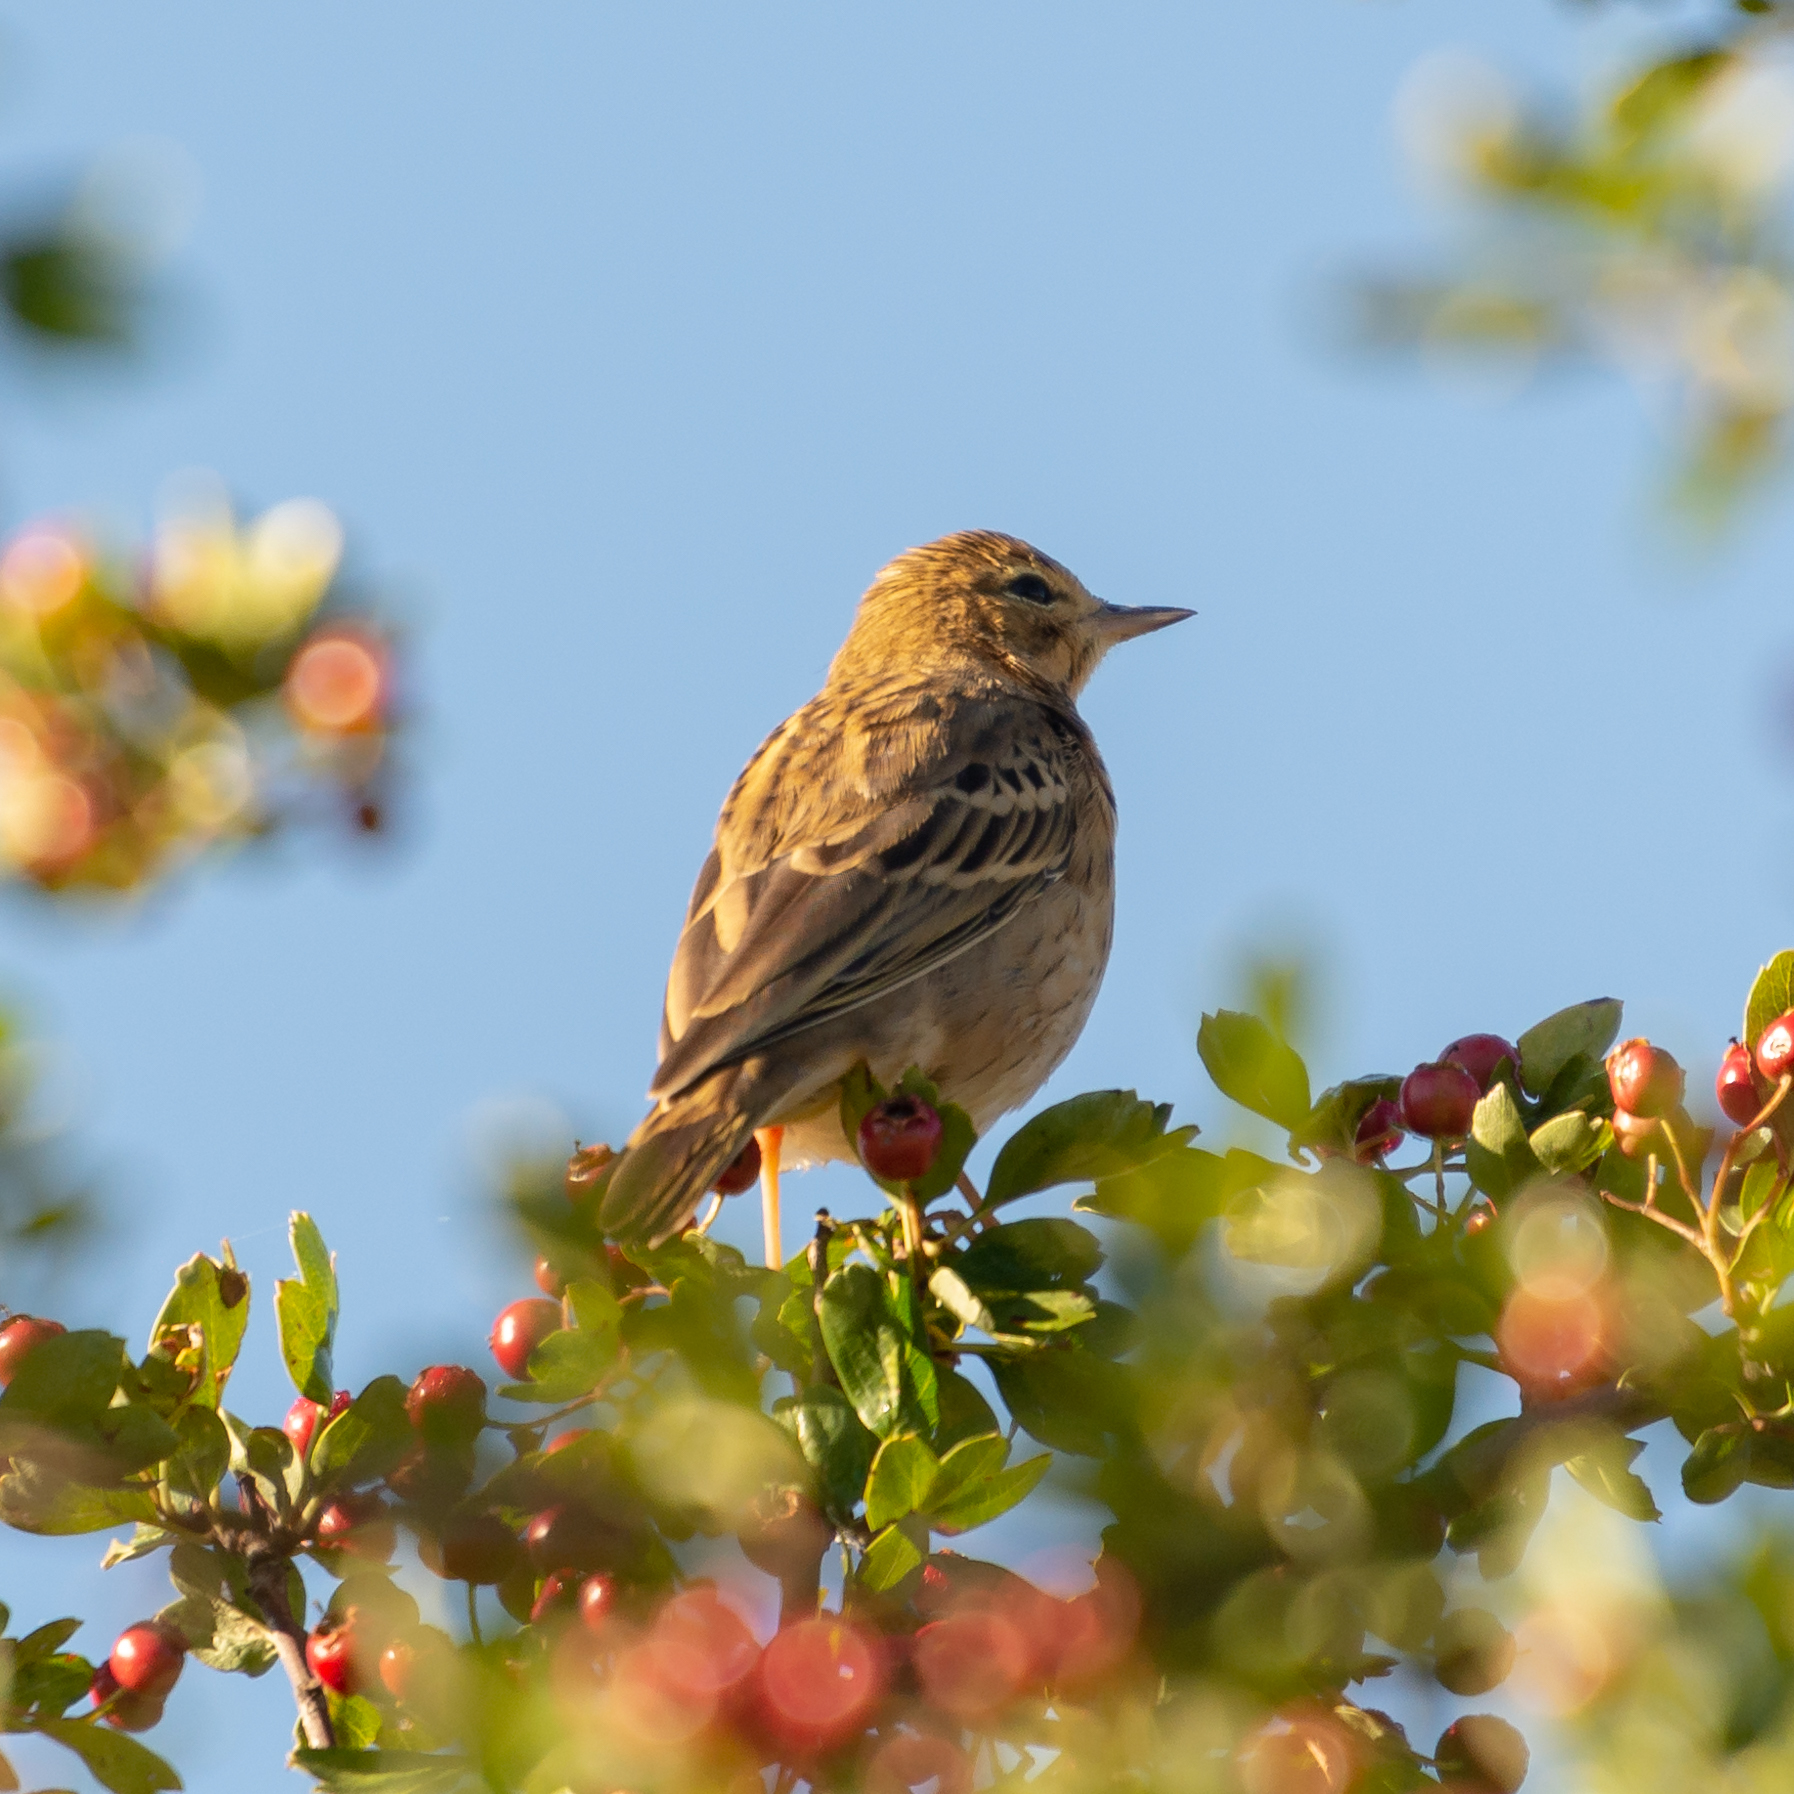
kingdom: Animalia
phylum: Chordata
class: Aves
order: Passeriformes
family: Motacillidae
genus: Anthus
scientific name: Anthus trivialis
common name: Tree pipit
